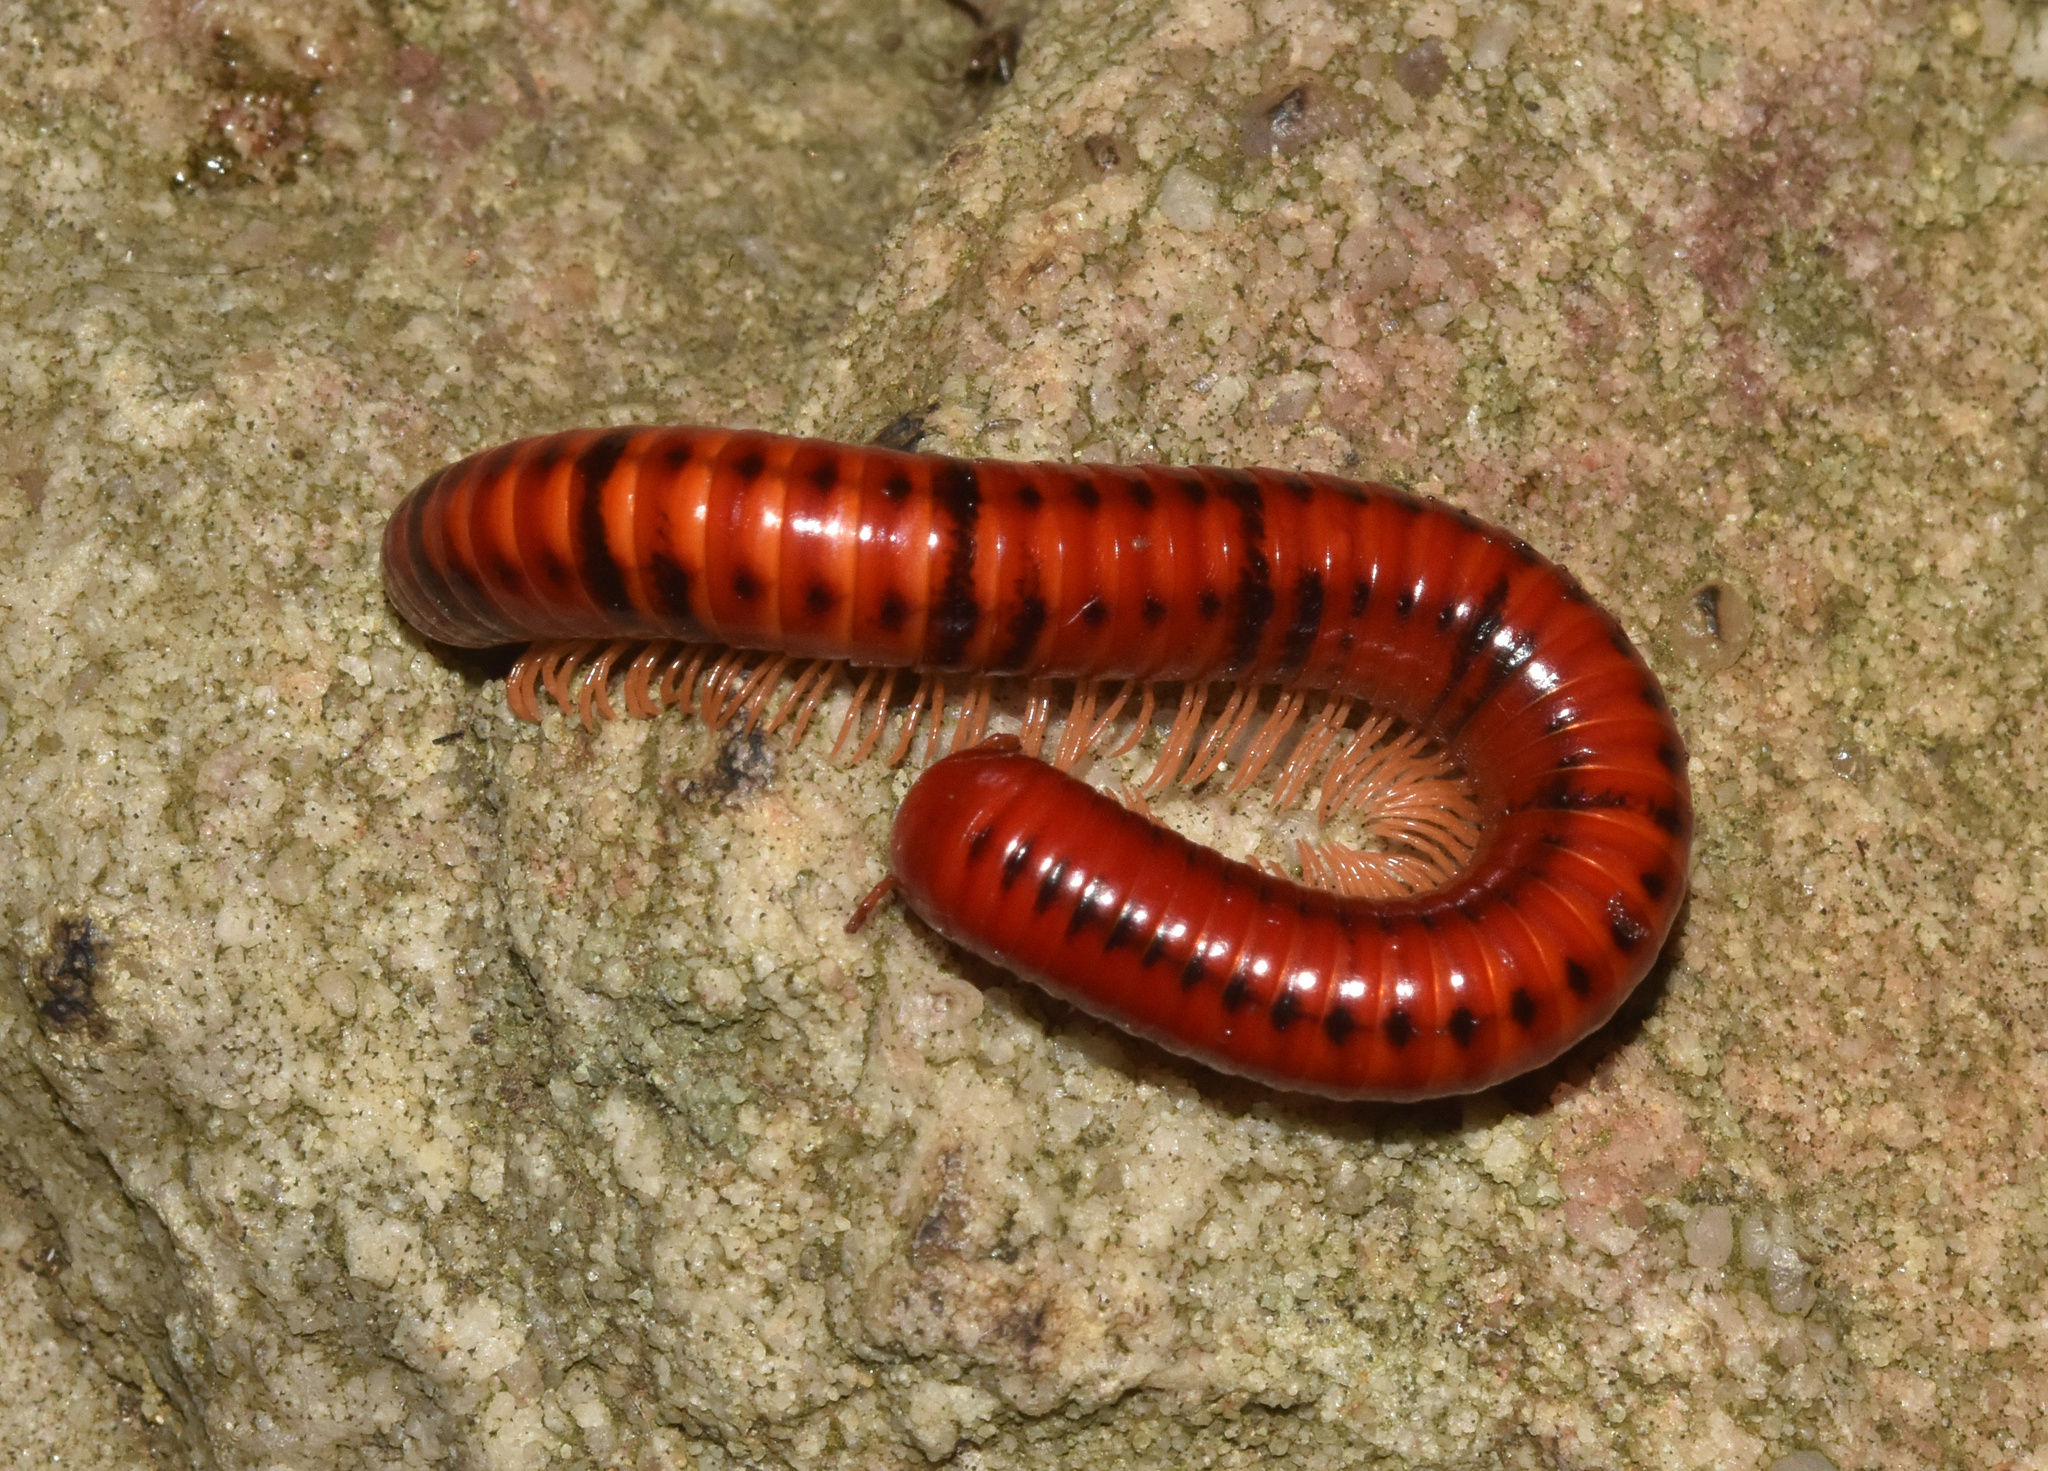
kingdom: Animalia
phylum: Arthropoda
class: Diplopoda
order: Spirobolida
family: Pachybolidae
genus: Centrobolus
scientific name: Centrobolus ruber
